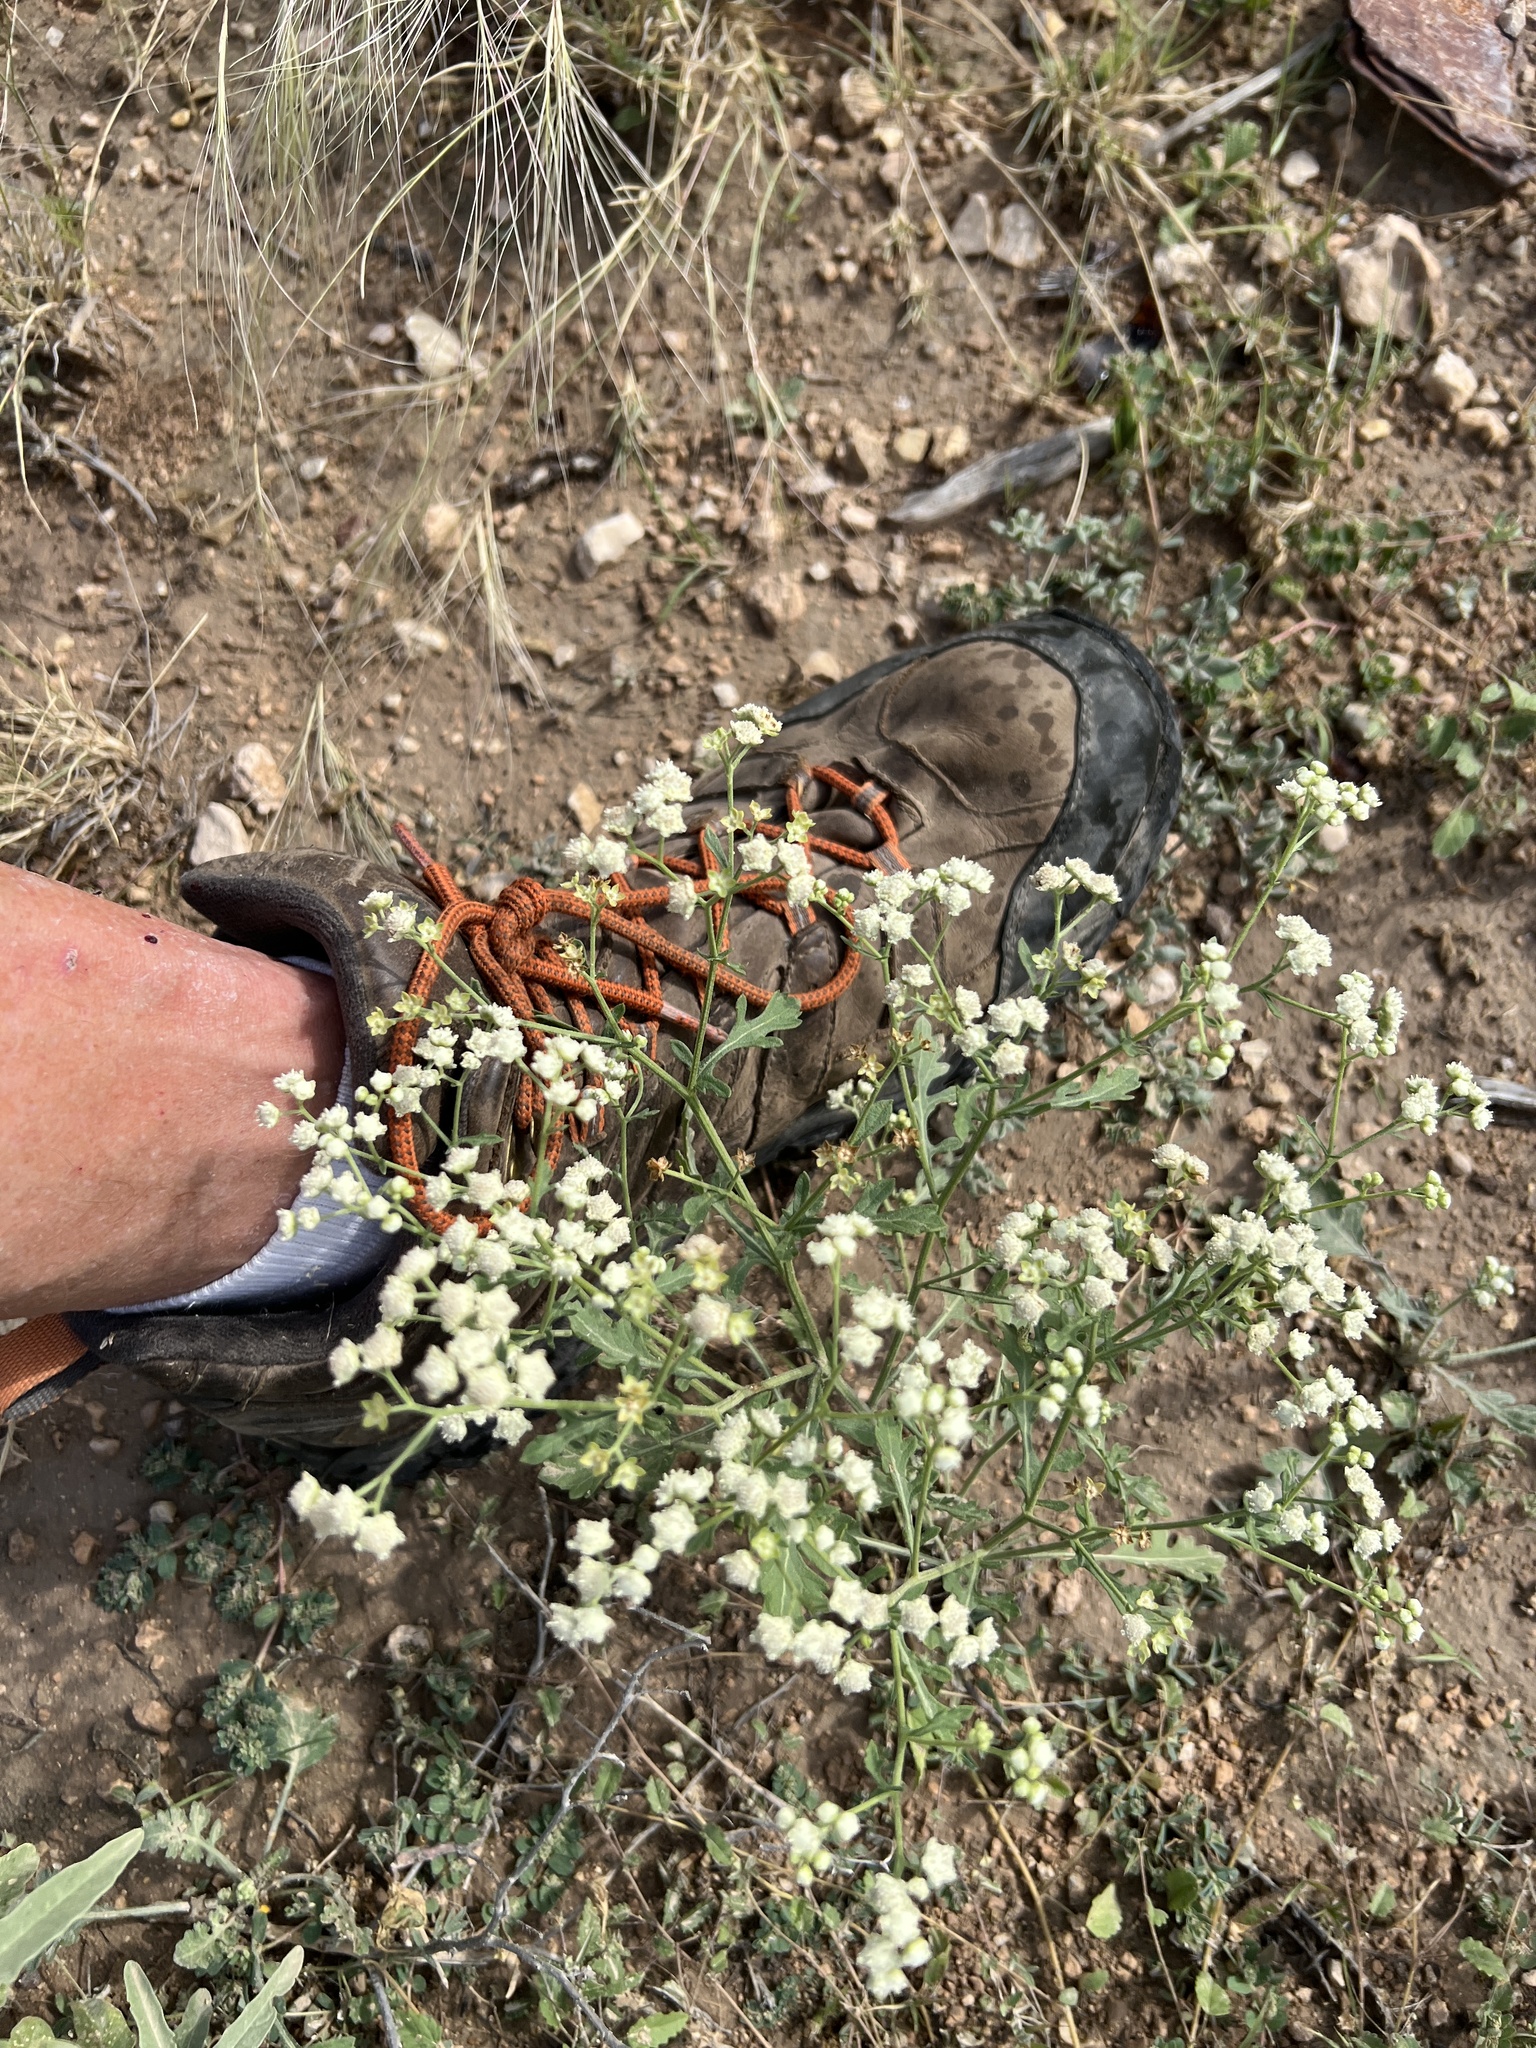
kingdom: Plantae
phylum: Tracheophyta
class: Magnoliopsida
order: Asterales
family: Asteraceae
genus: Parthenium
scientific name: Parthenium hysterophorus
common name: Santa maria feverfew
